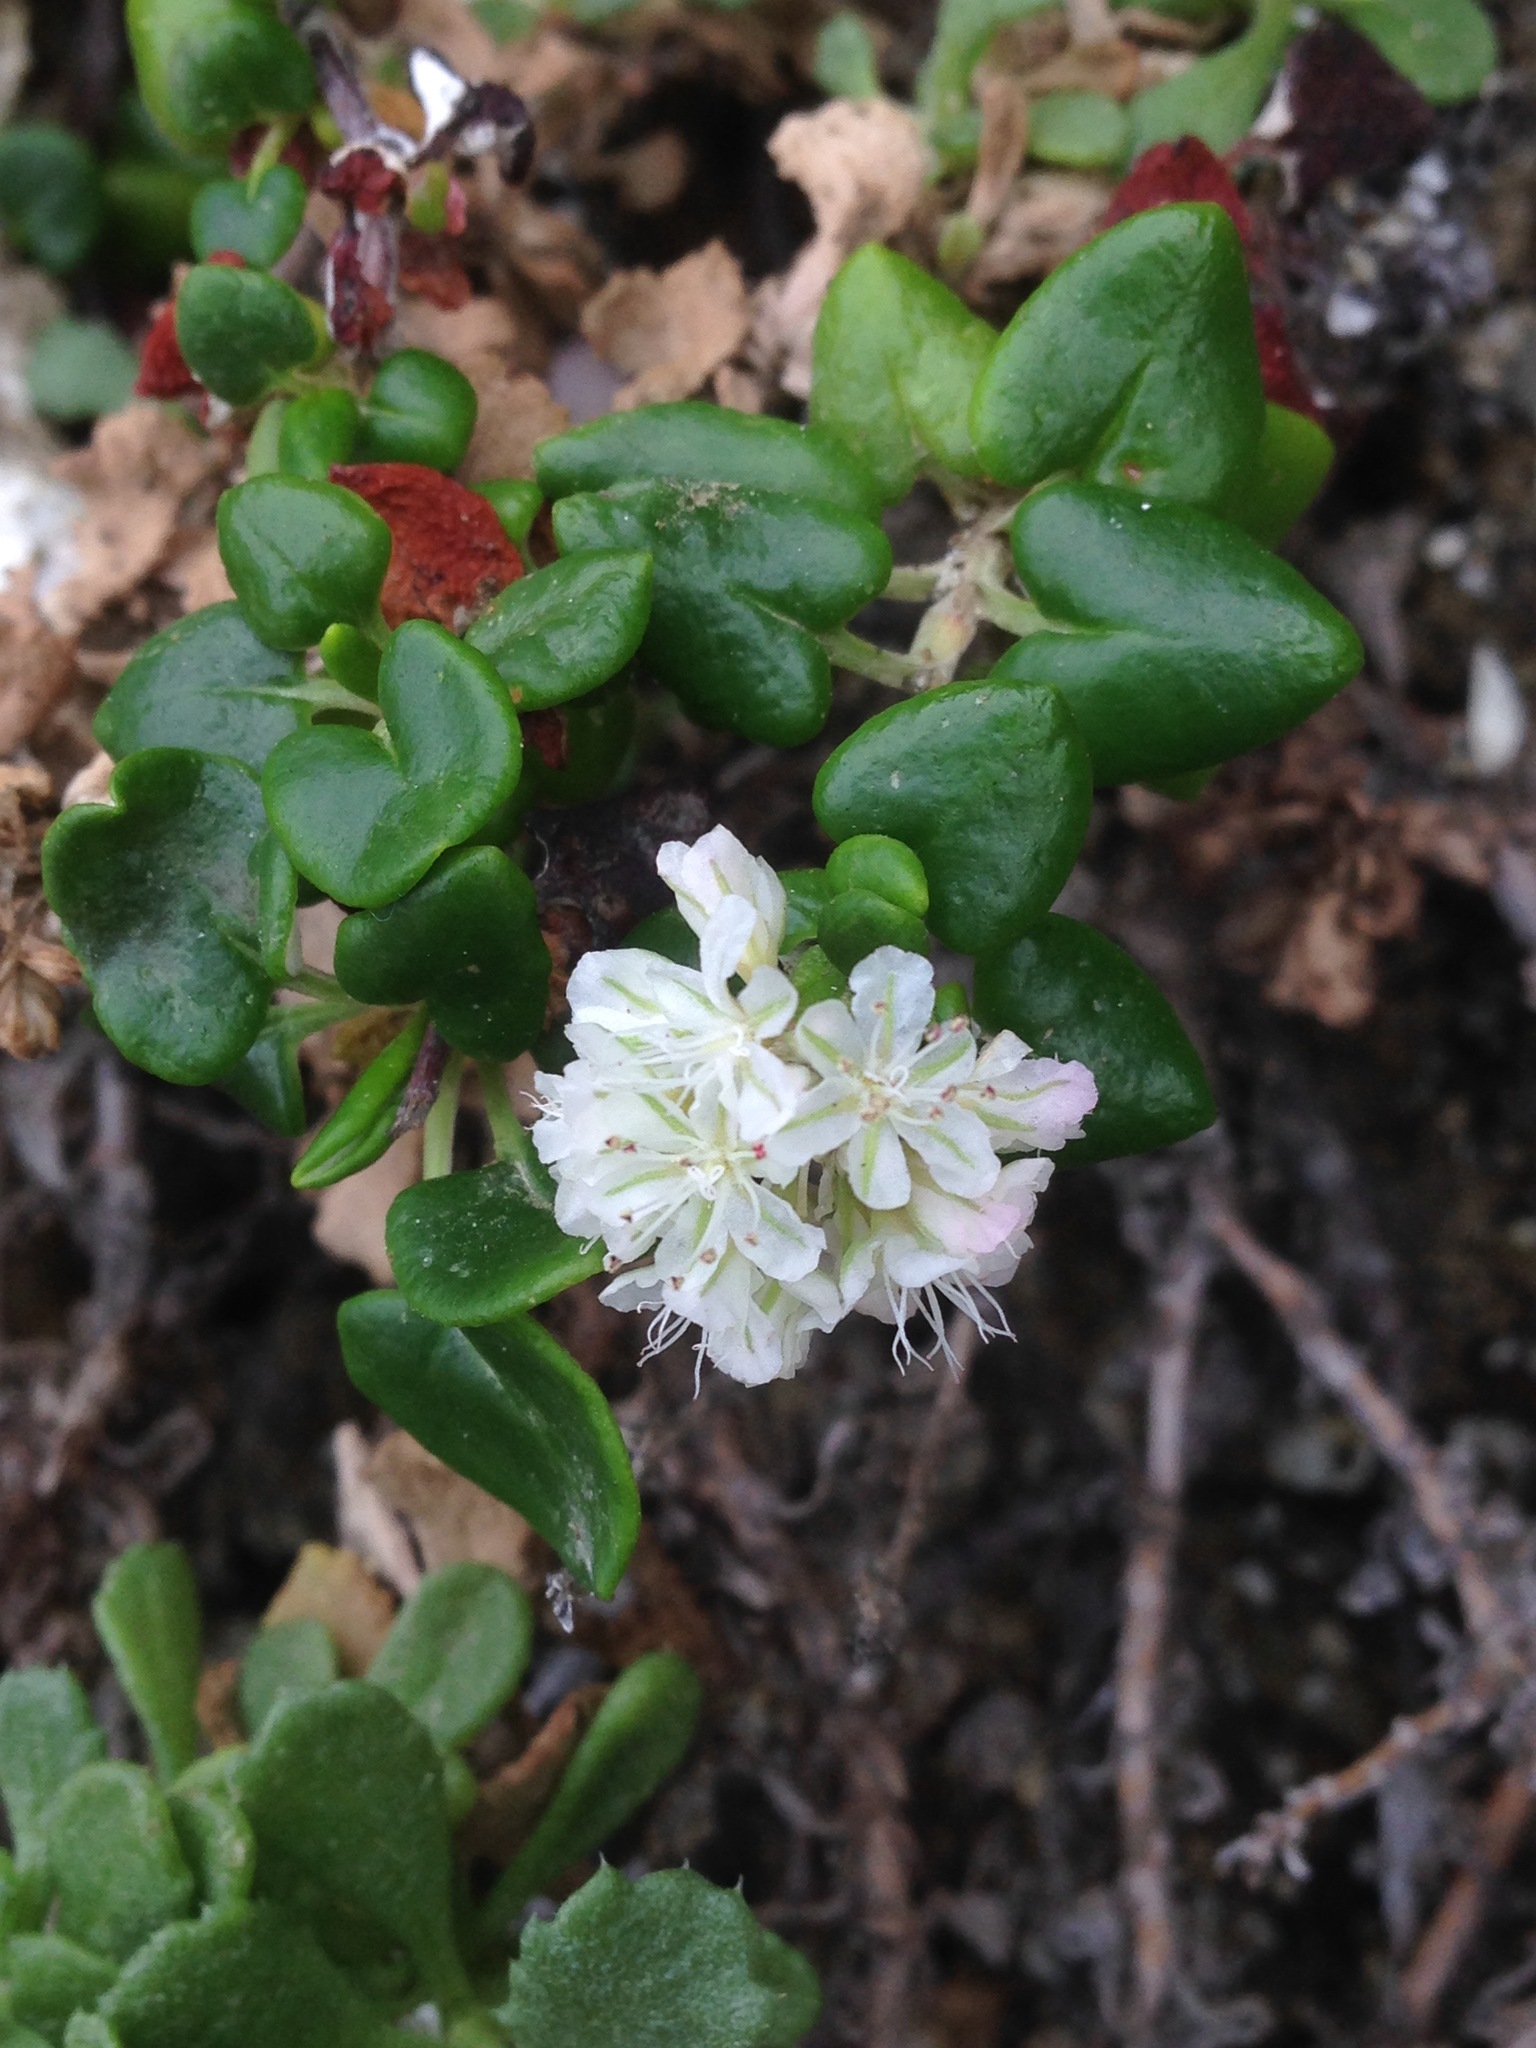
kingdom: Plantae
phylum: Tracheophyta
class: Magnoliopsida
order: Caryophyllales
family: Polygonaceae
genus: Eriogonum
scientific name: Eriogonum parvifolium
